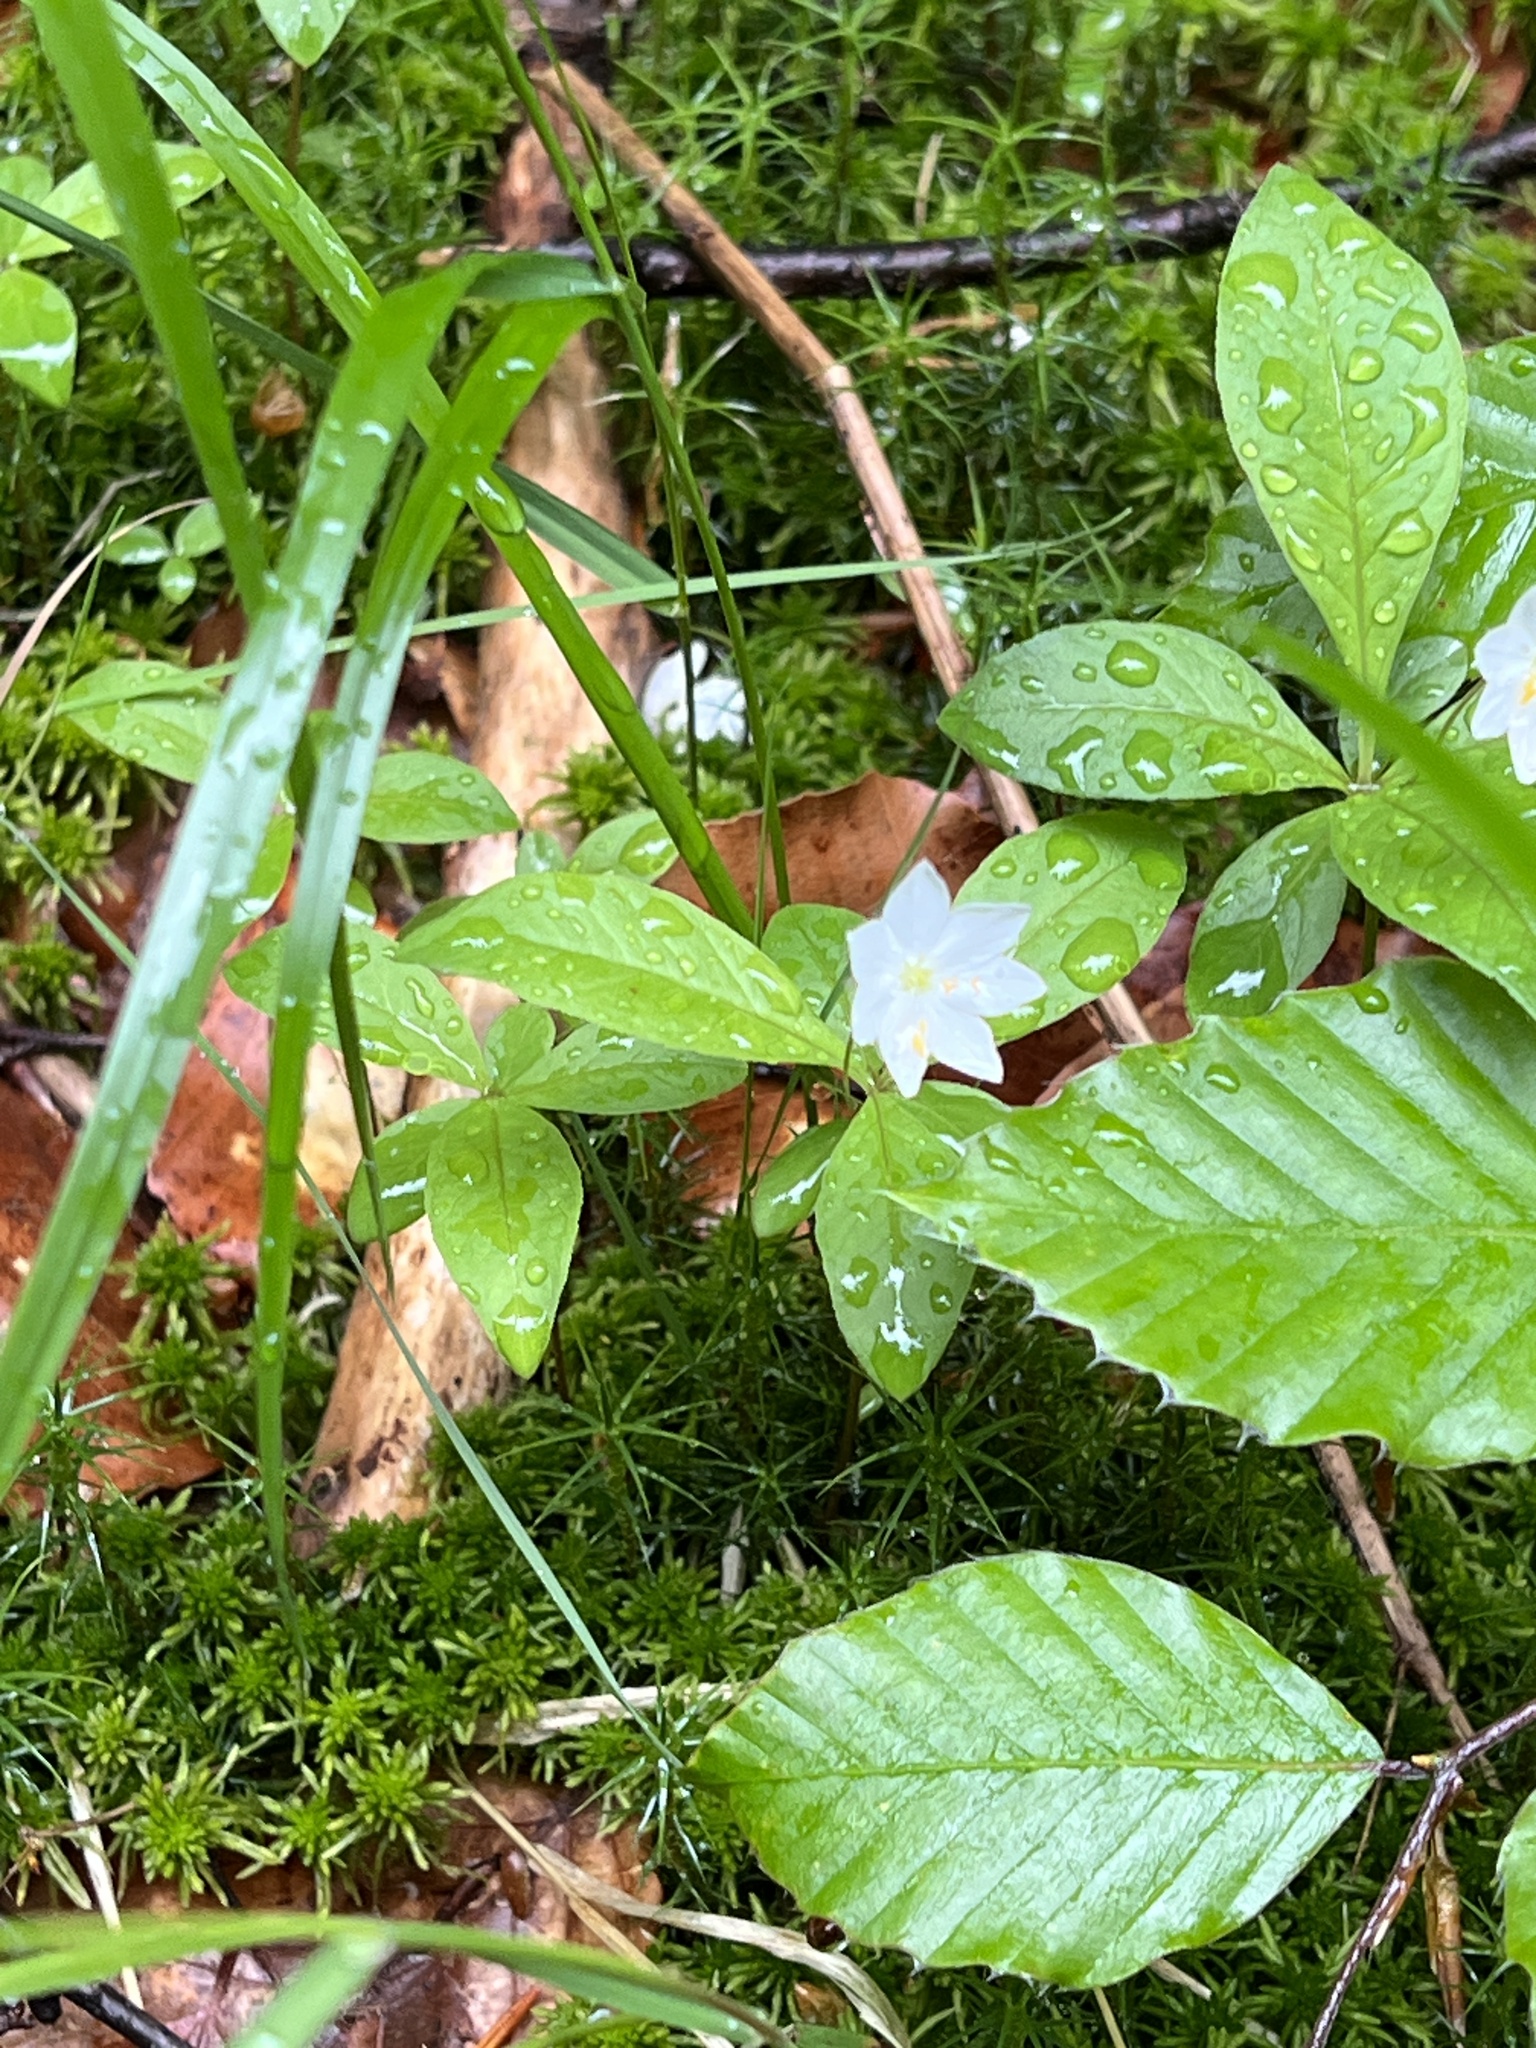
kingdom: Plantae
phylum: Tracheophyta
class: Magnoliopsida
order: Ericales
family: Primulaceae
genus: Lysimachia
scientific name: Lysimachia europaea
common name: Arctic starflower
